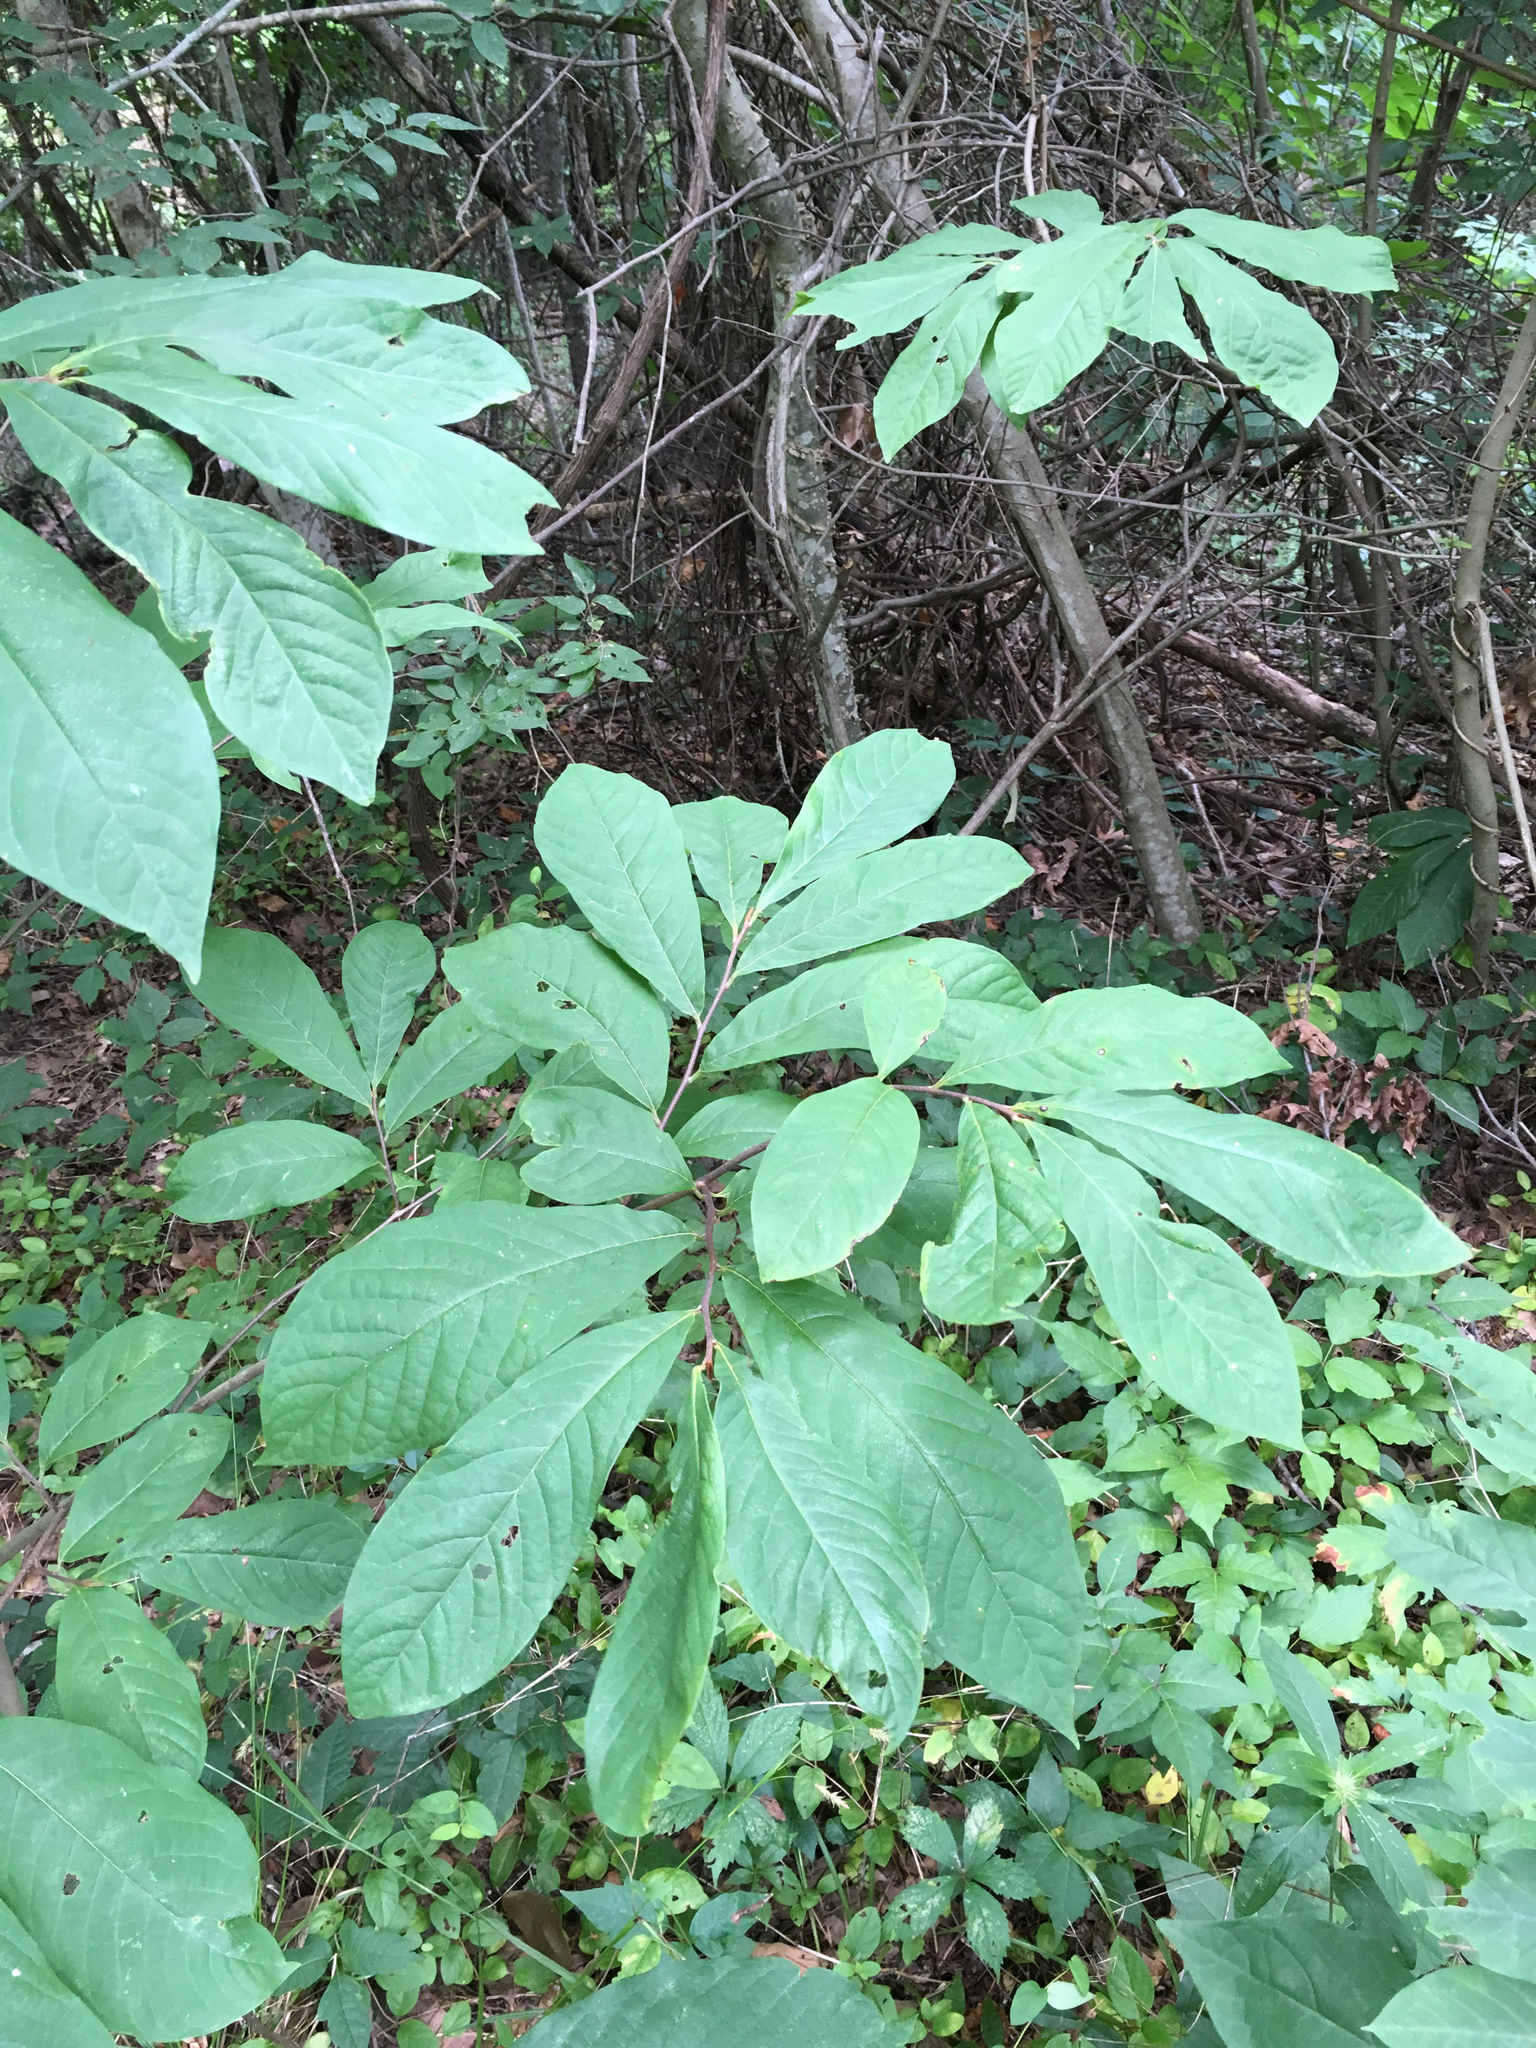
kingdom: Plantae
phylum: Tracheophyta
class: Magnoliopsida
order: Magnoliales
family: Annonaceae
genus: Asimina
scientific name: Asimina triloba
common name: Dog-banana
